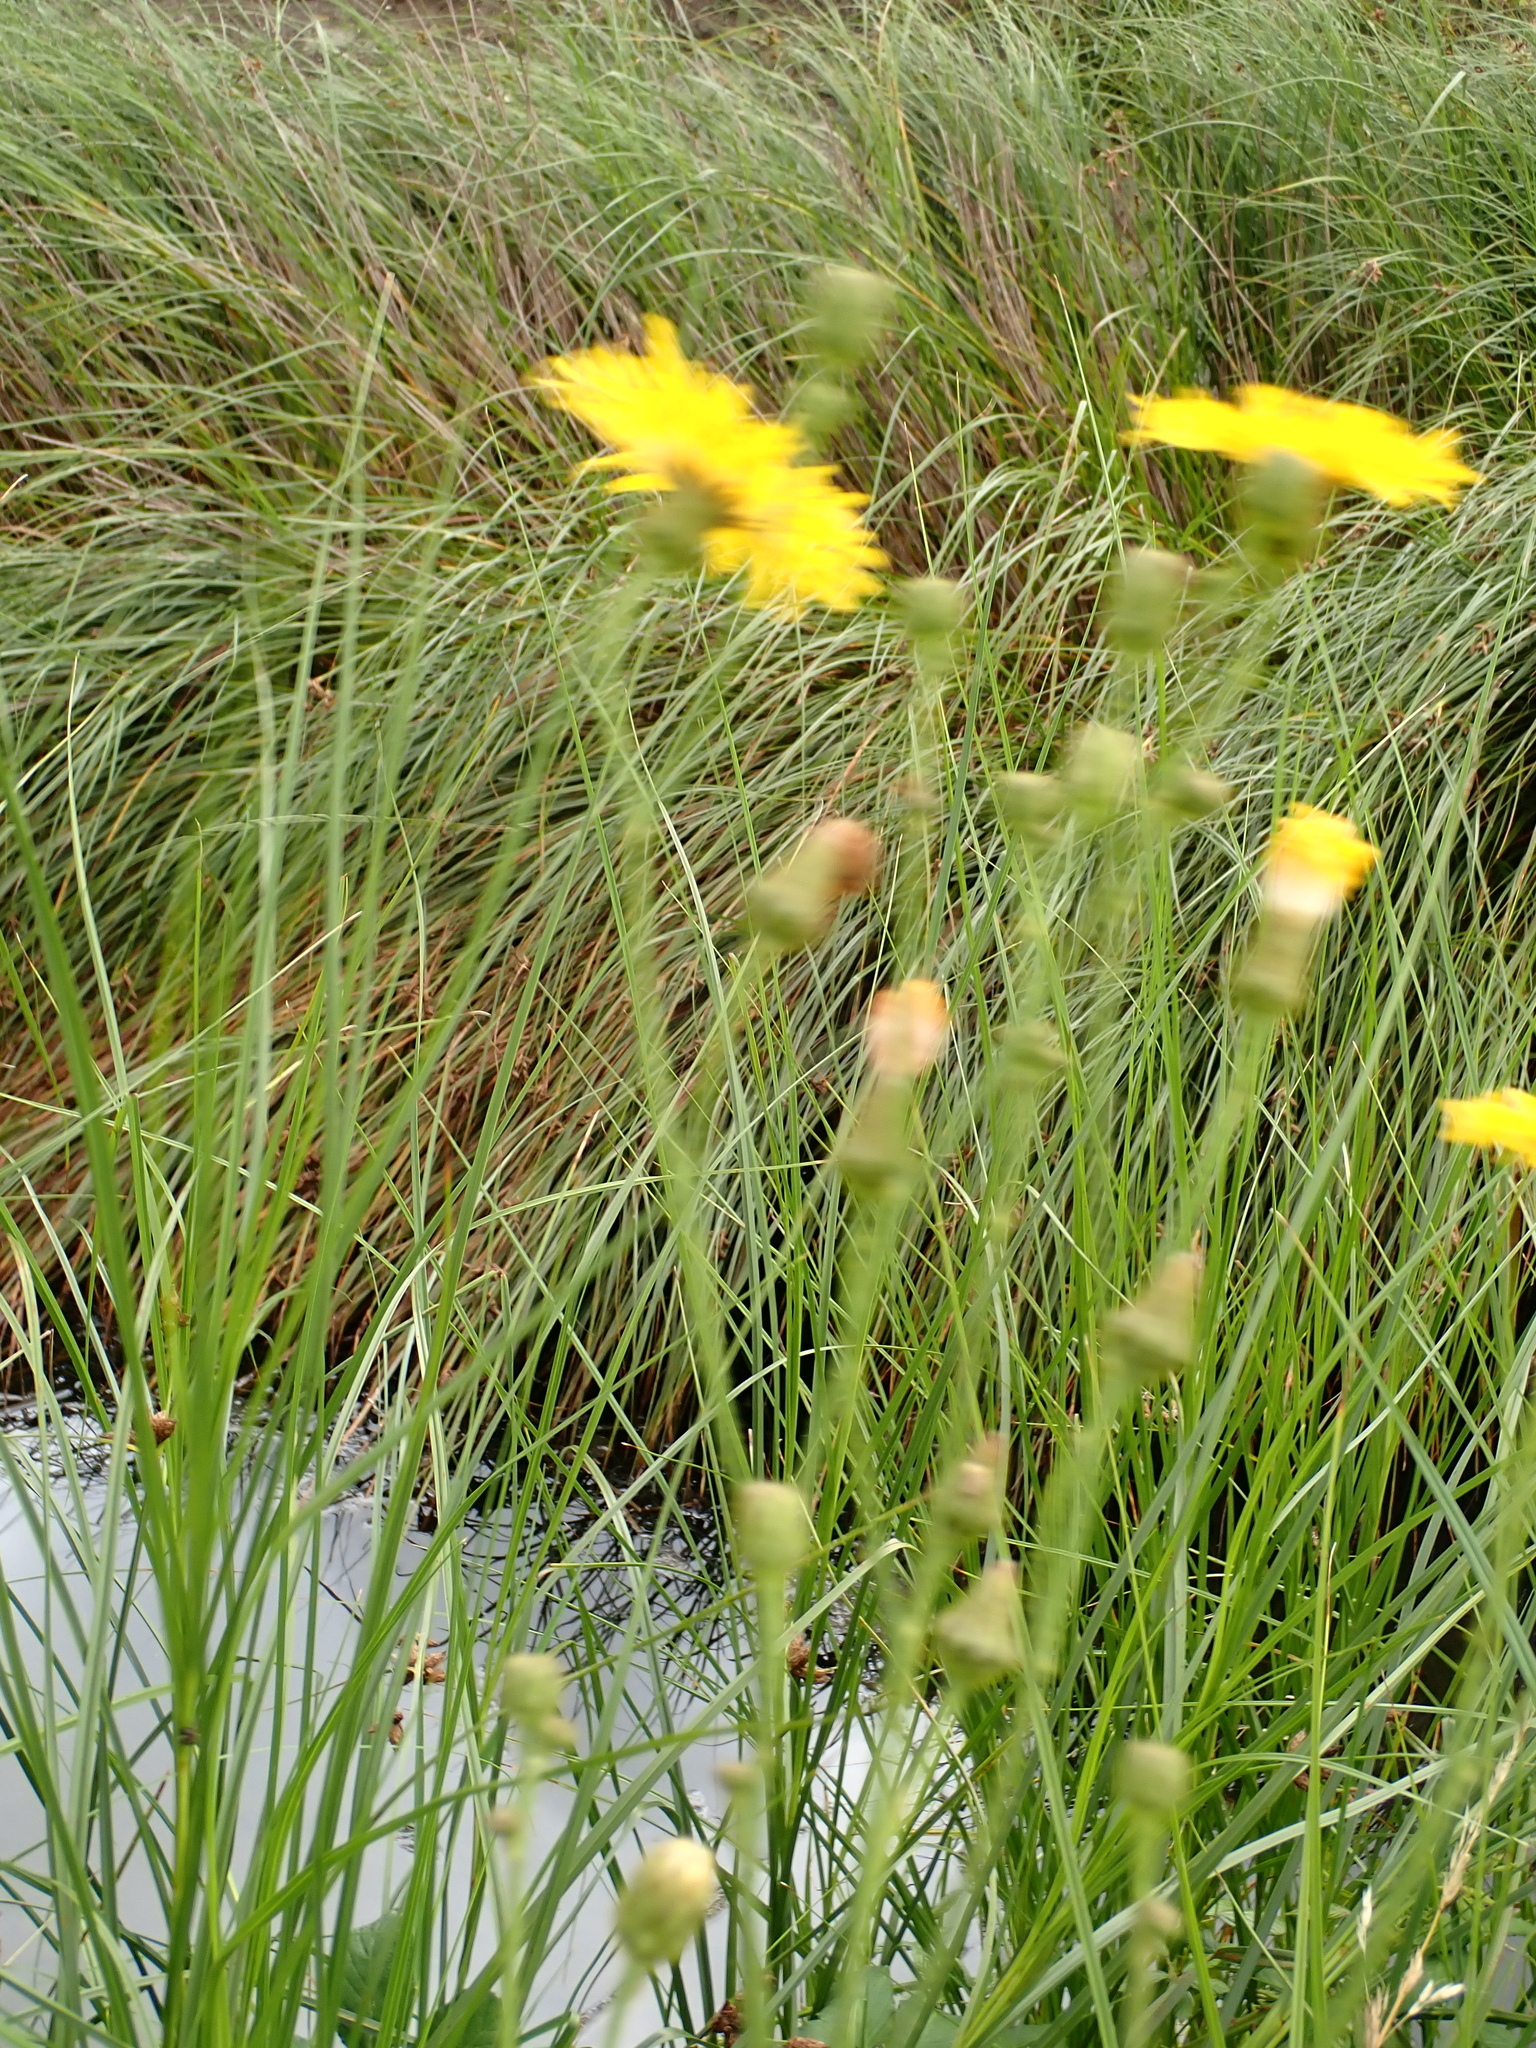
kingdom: Plantae
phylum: Tracheophyta
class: Magnoliopsida
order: Asterales
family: Asteraceae
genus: Sonchus
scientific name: Sonchus arvensis
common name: Perennial sow-thistle
